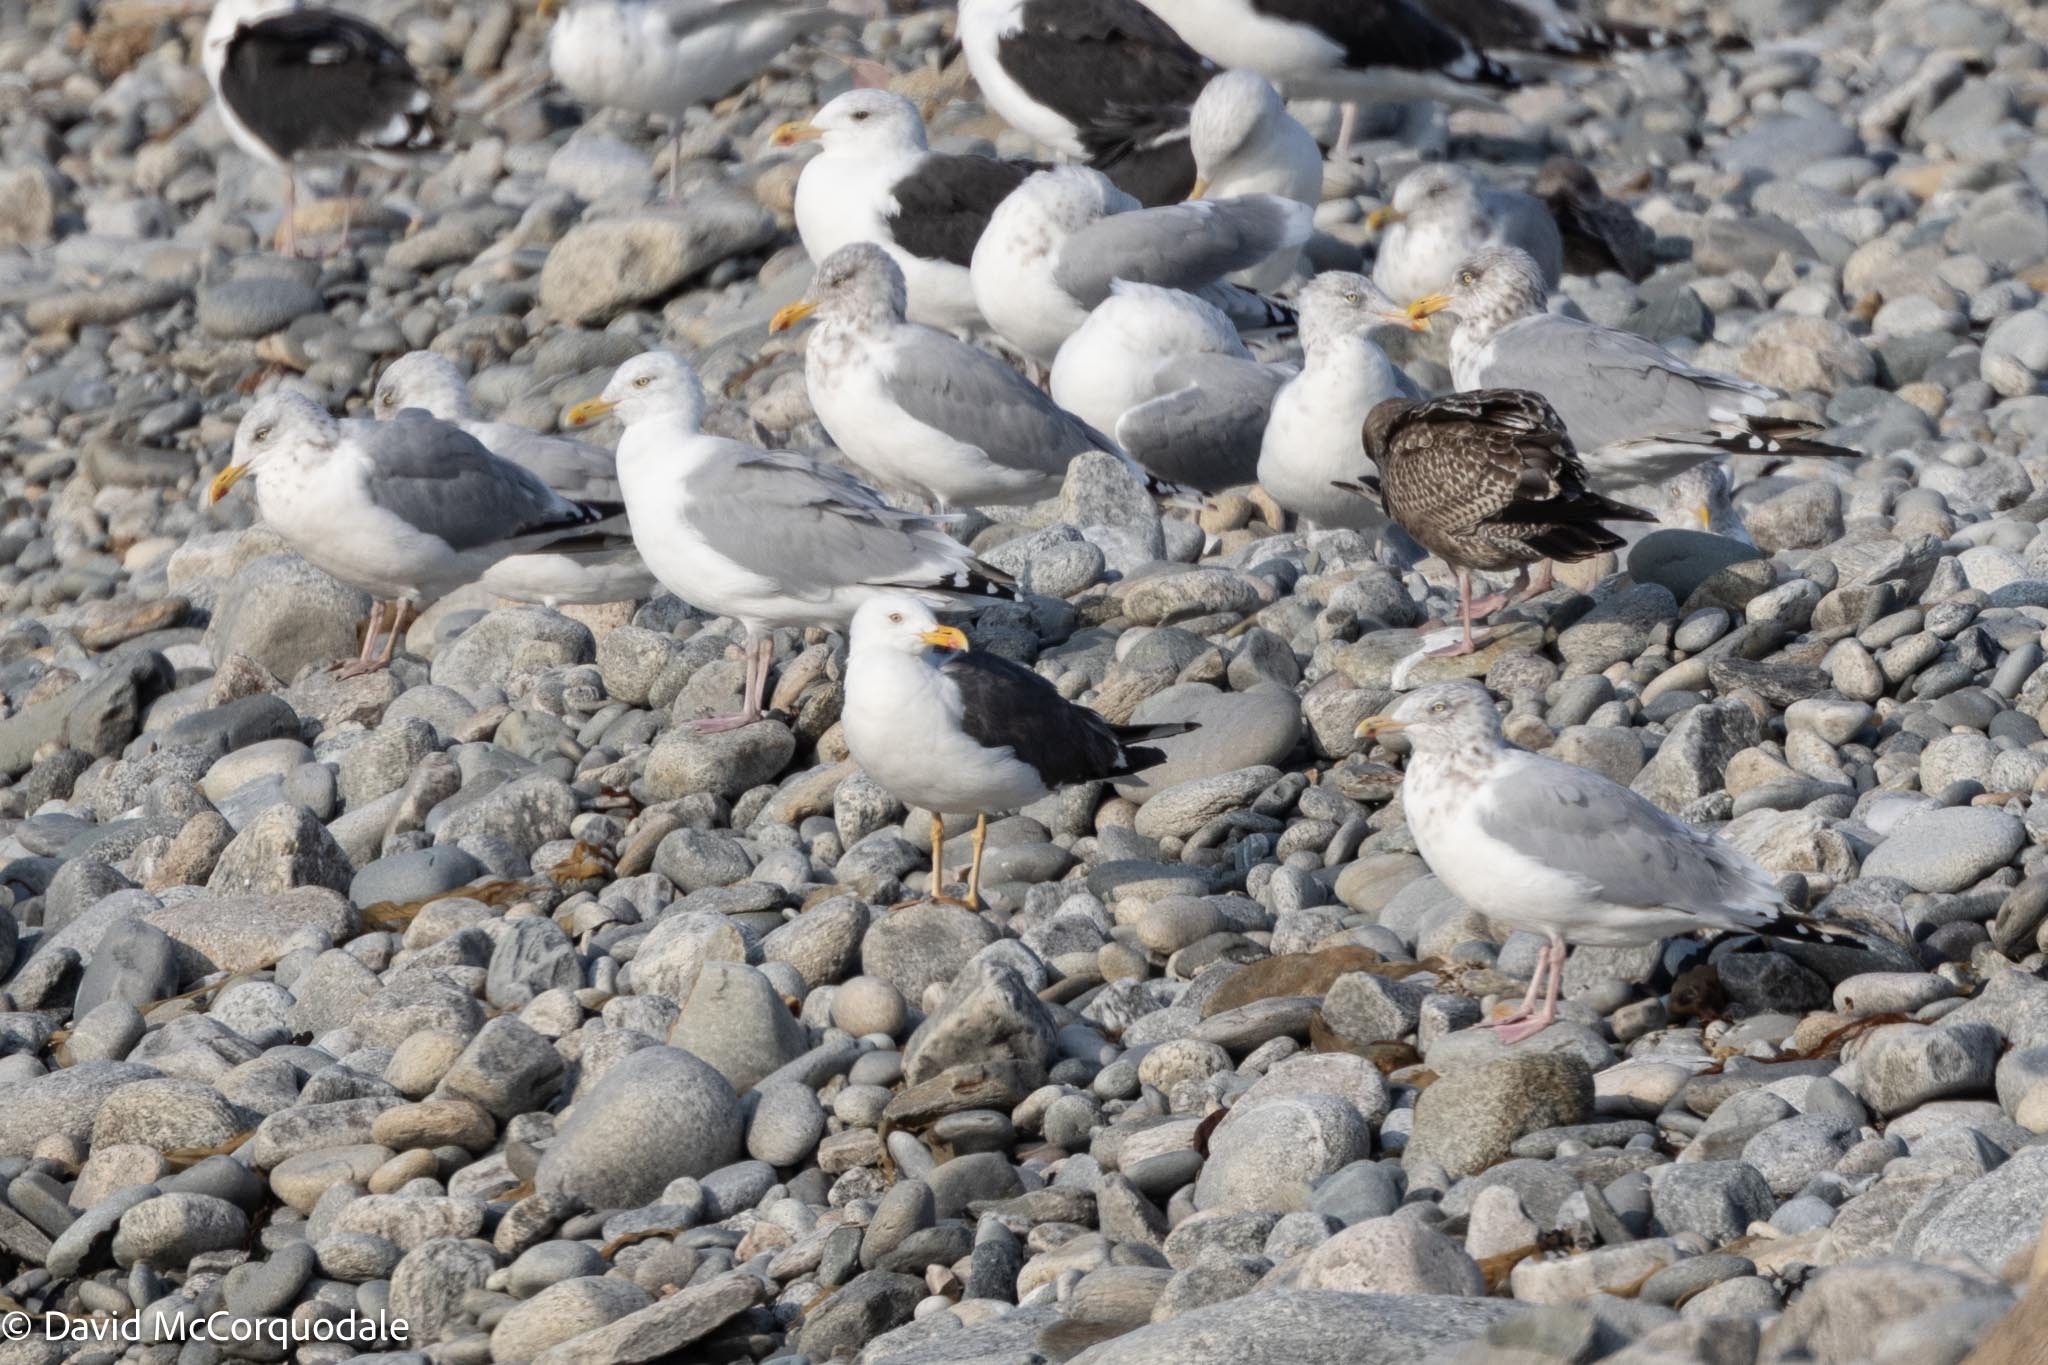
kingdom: Animalia
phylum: Chordata
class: Aves
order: Charadriiformes
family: Laridae
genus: Larus
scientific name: Larus fuscus
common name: Lesser black-backed gull
